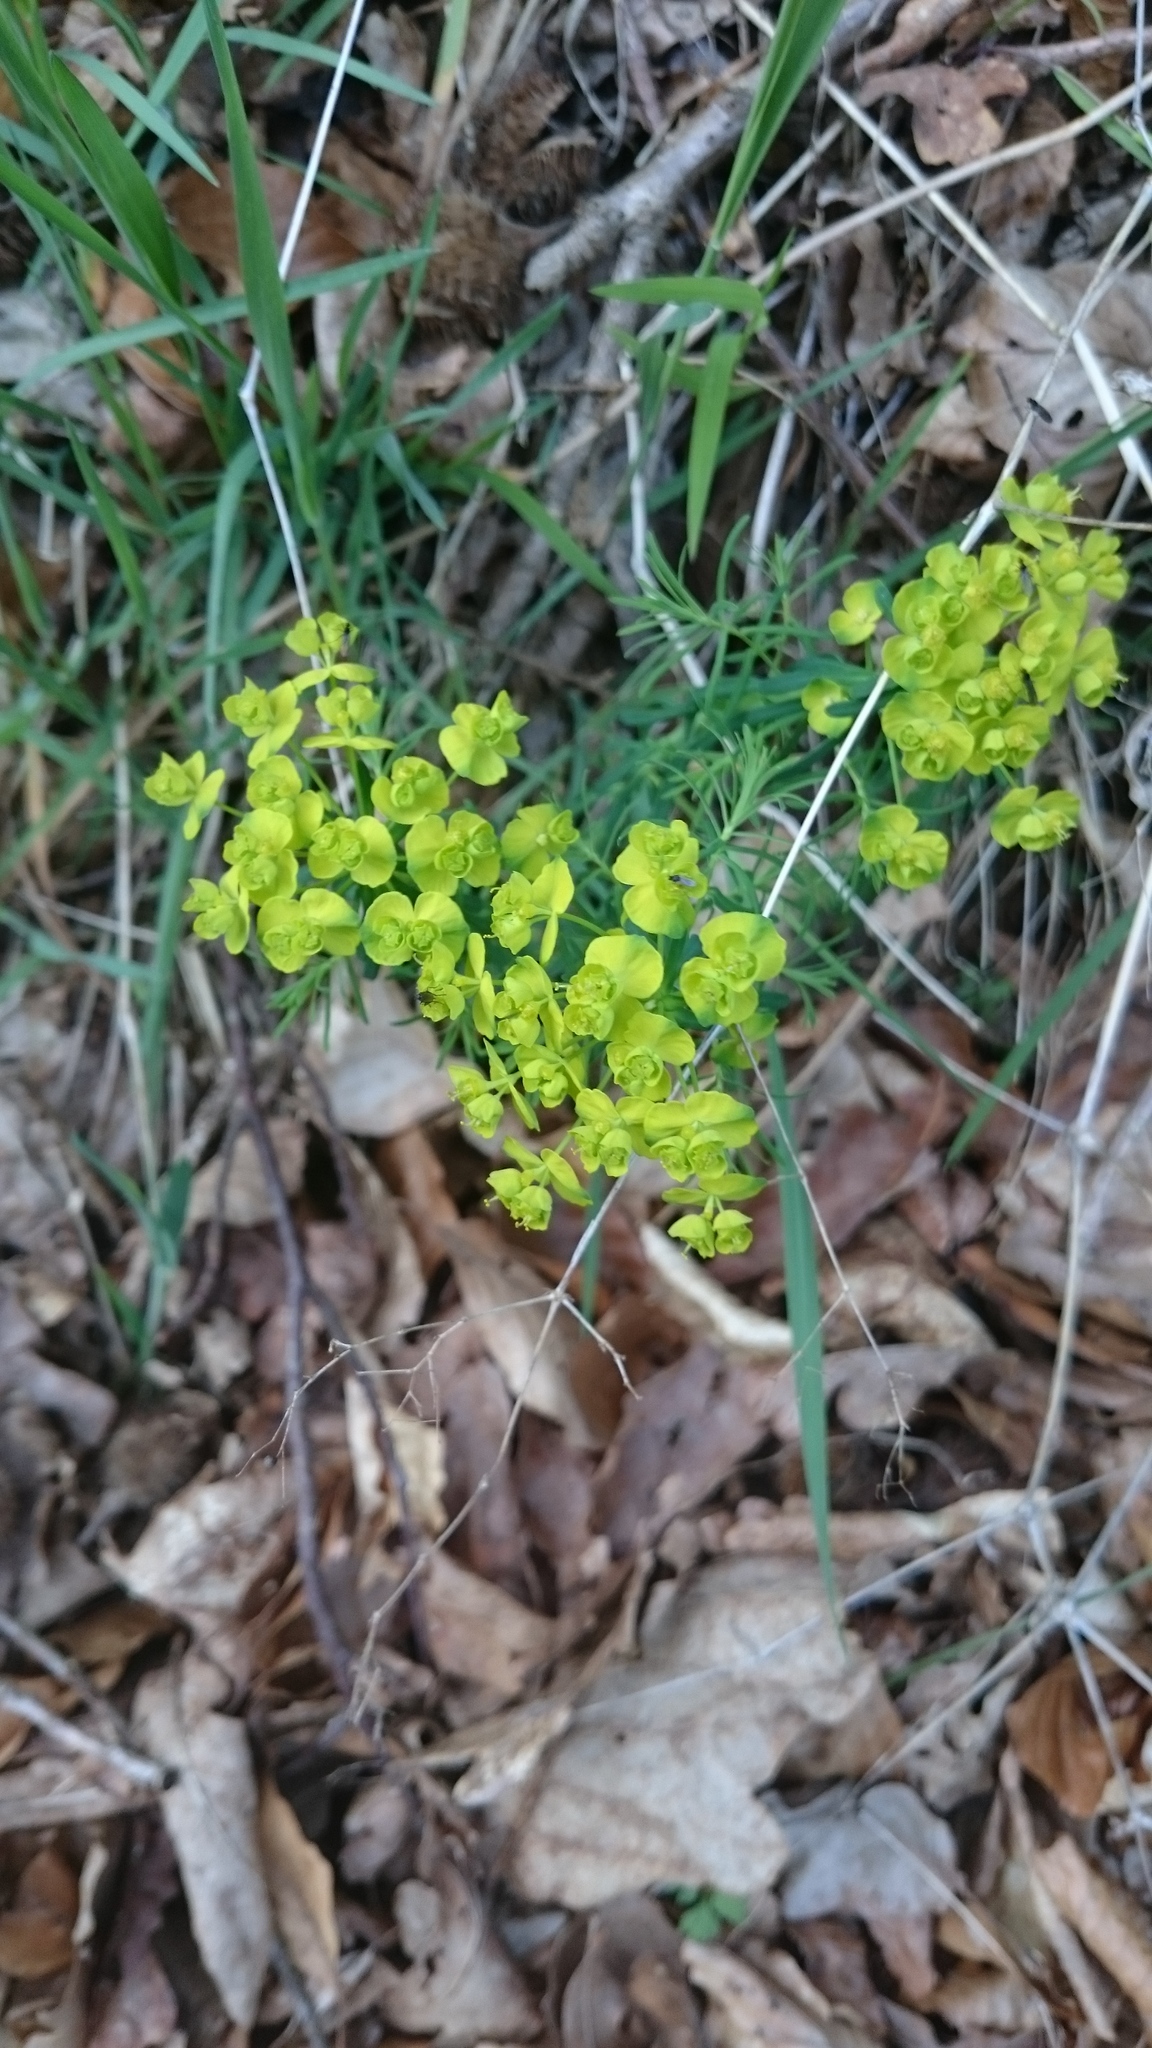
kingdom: Plantae
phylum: Tracheophyta
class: Magnoliopsida
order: Malpighiales
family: Euphorbiaceae
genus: Euphorbia
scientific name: Euphorbia cyparissias
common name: Cypress spurge
